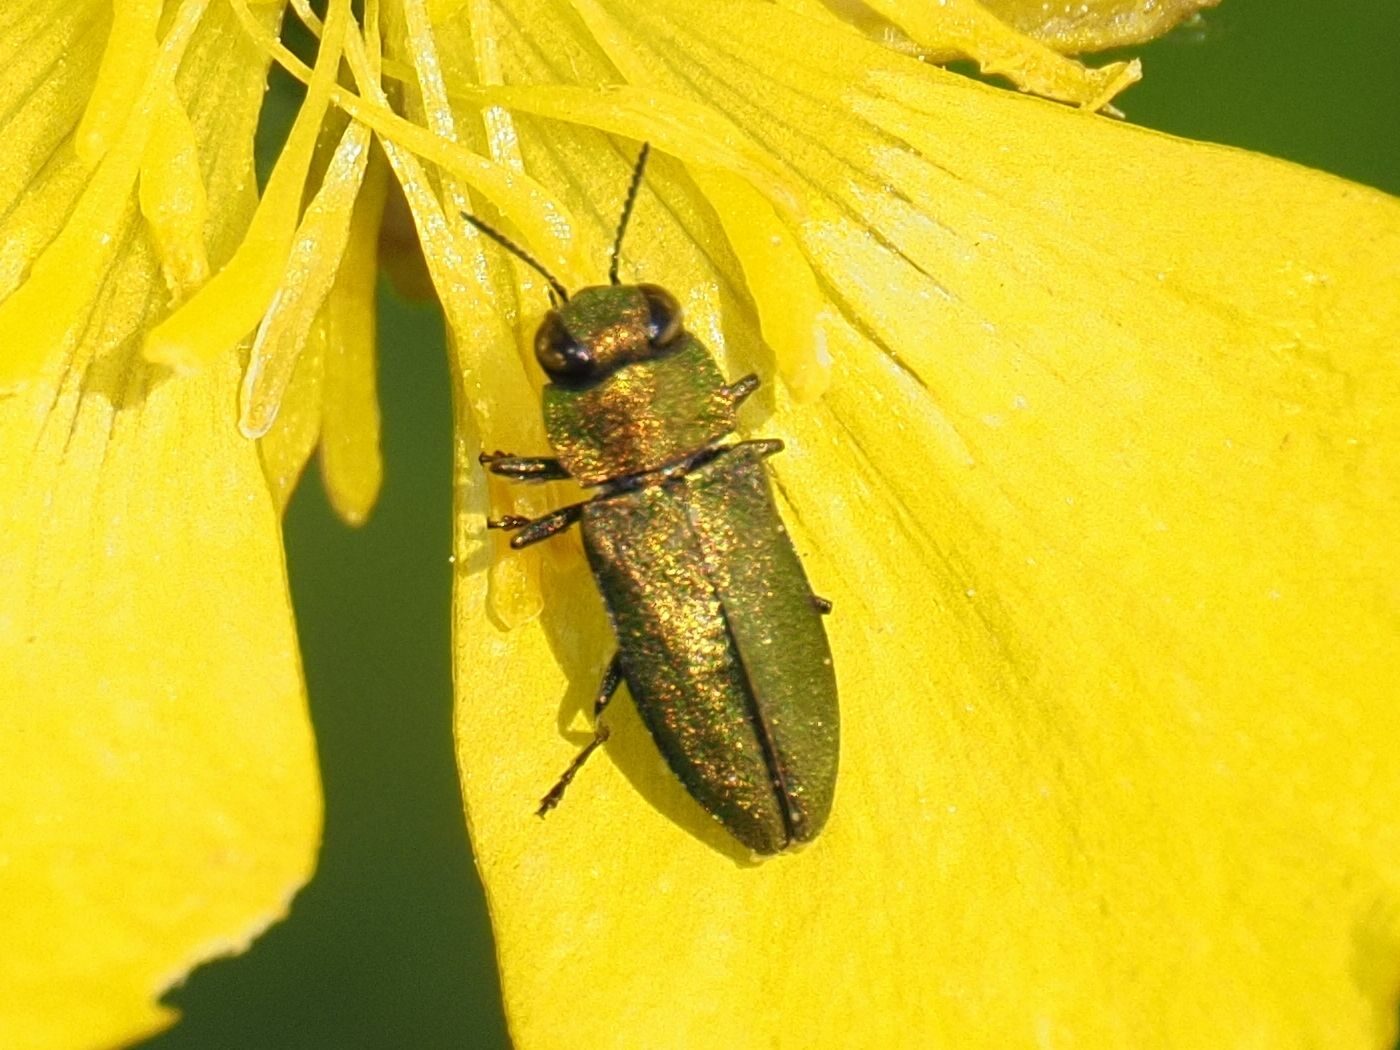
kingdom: Animalia
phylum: Arthropoda
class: Insecta
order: Coleoptera
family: Buprestidae
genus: Anthaxia
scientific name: Anthaxia nitidula
